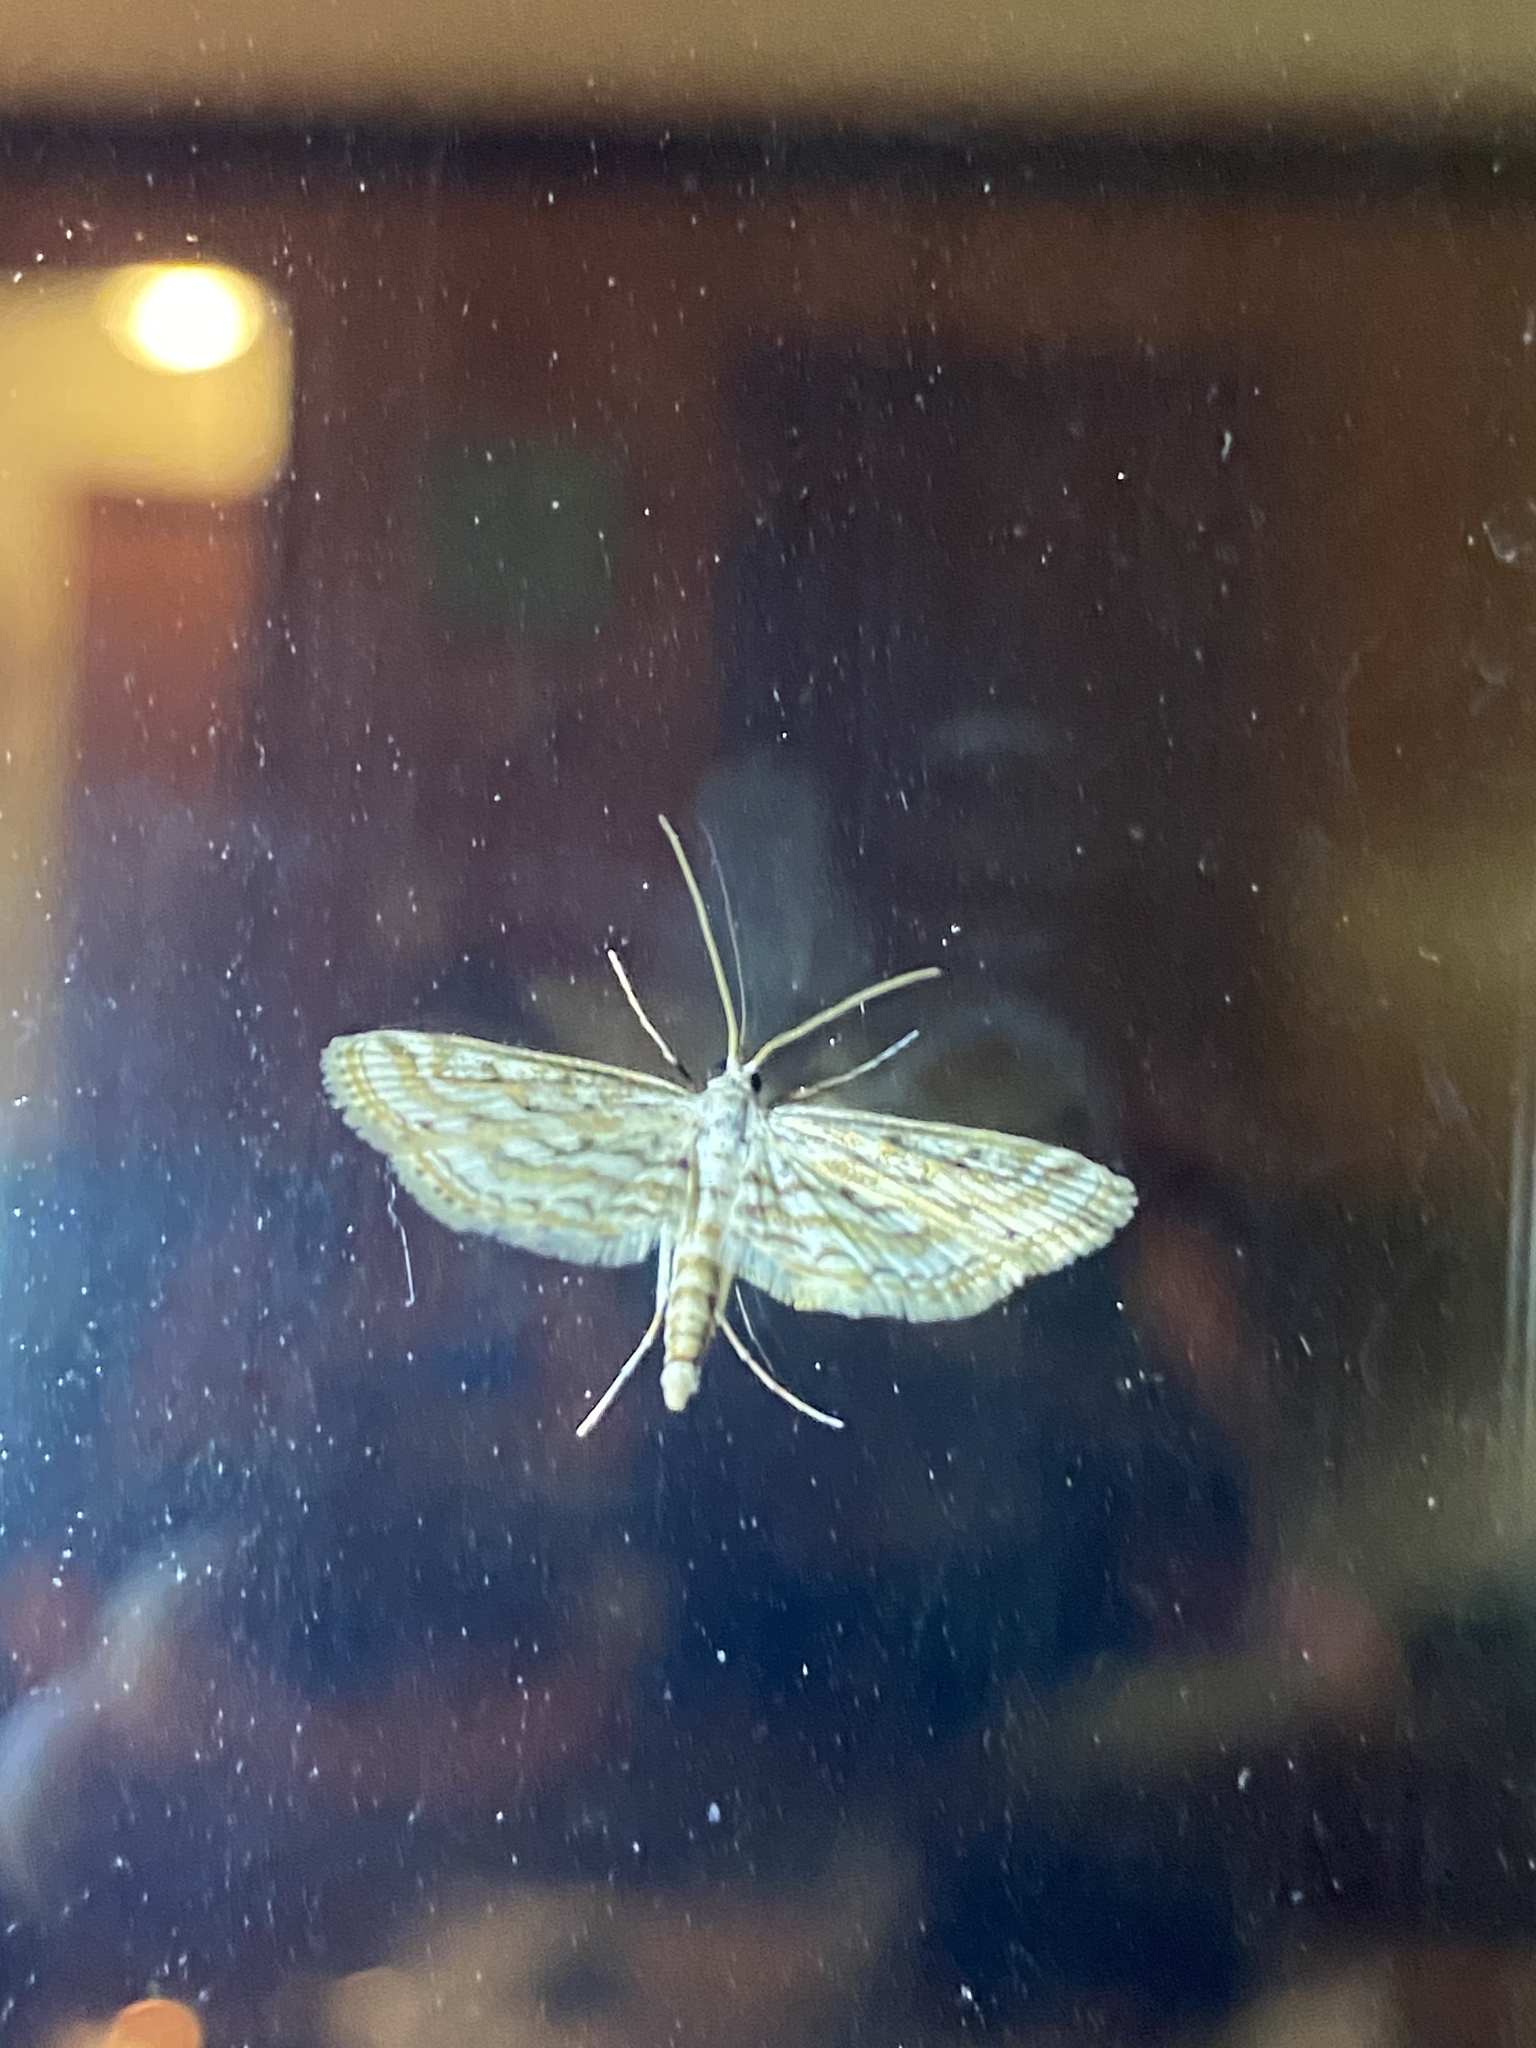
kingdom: Animalia
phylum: Arthropoda
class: Insecta
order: Lepidoptera
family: Crambidae
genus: Parapoynx
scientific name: Parapoynx allionealis
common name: Bladderwort casemaker
